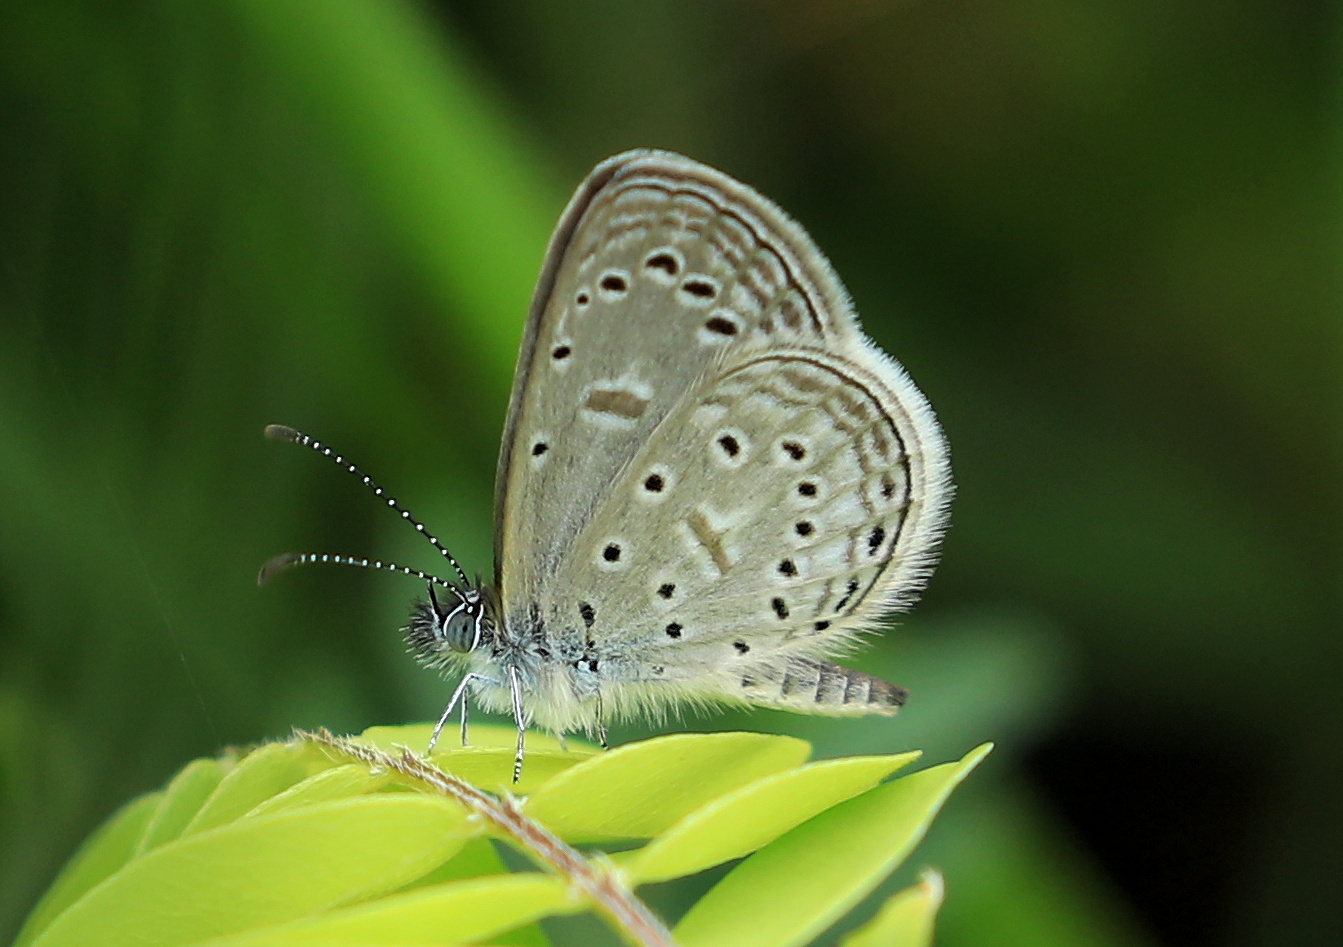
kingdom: Animalia
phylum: Arthropoda
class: Insecta
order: Lepidoptera
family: Lycaenidae
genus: Zizula
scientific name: Zizula hylax
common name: Gaika blue
